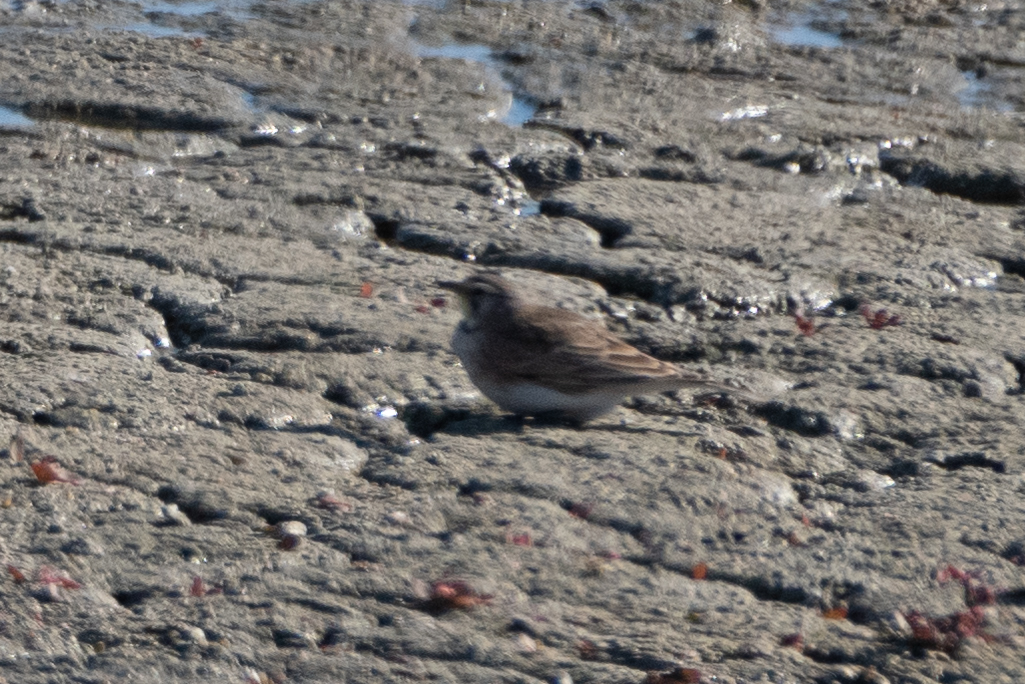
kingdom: Animalia
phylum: Chordata
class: Aves
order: Passeriformes
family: Alaudidae
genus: Eremophila
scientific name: Eremophila alpestris
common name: Horned lark
